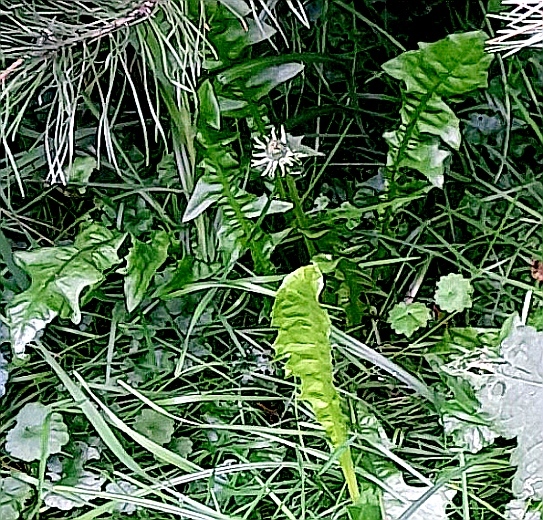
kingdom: Plantae
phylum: Tracheophyta
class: Magnoliopsida
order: Asterales
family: Asteraceae
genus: Taraxacum
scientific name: Taraxacum officinale
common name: Common dandelion
